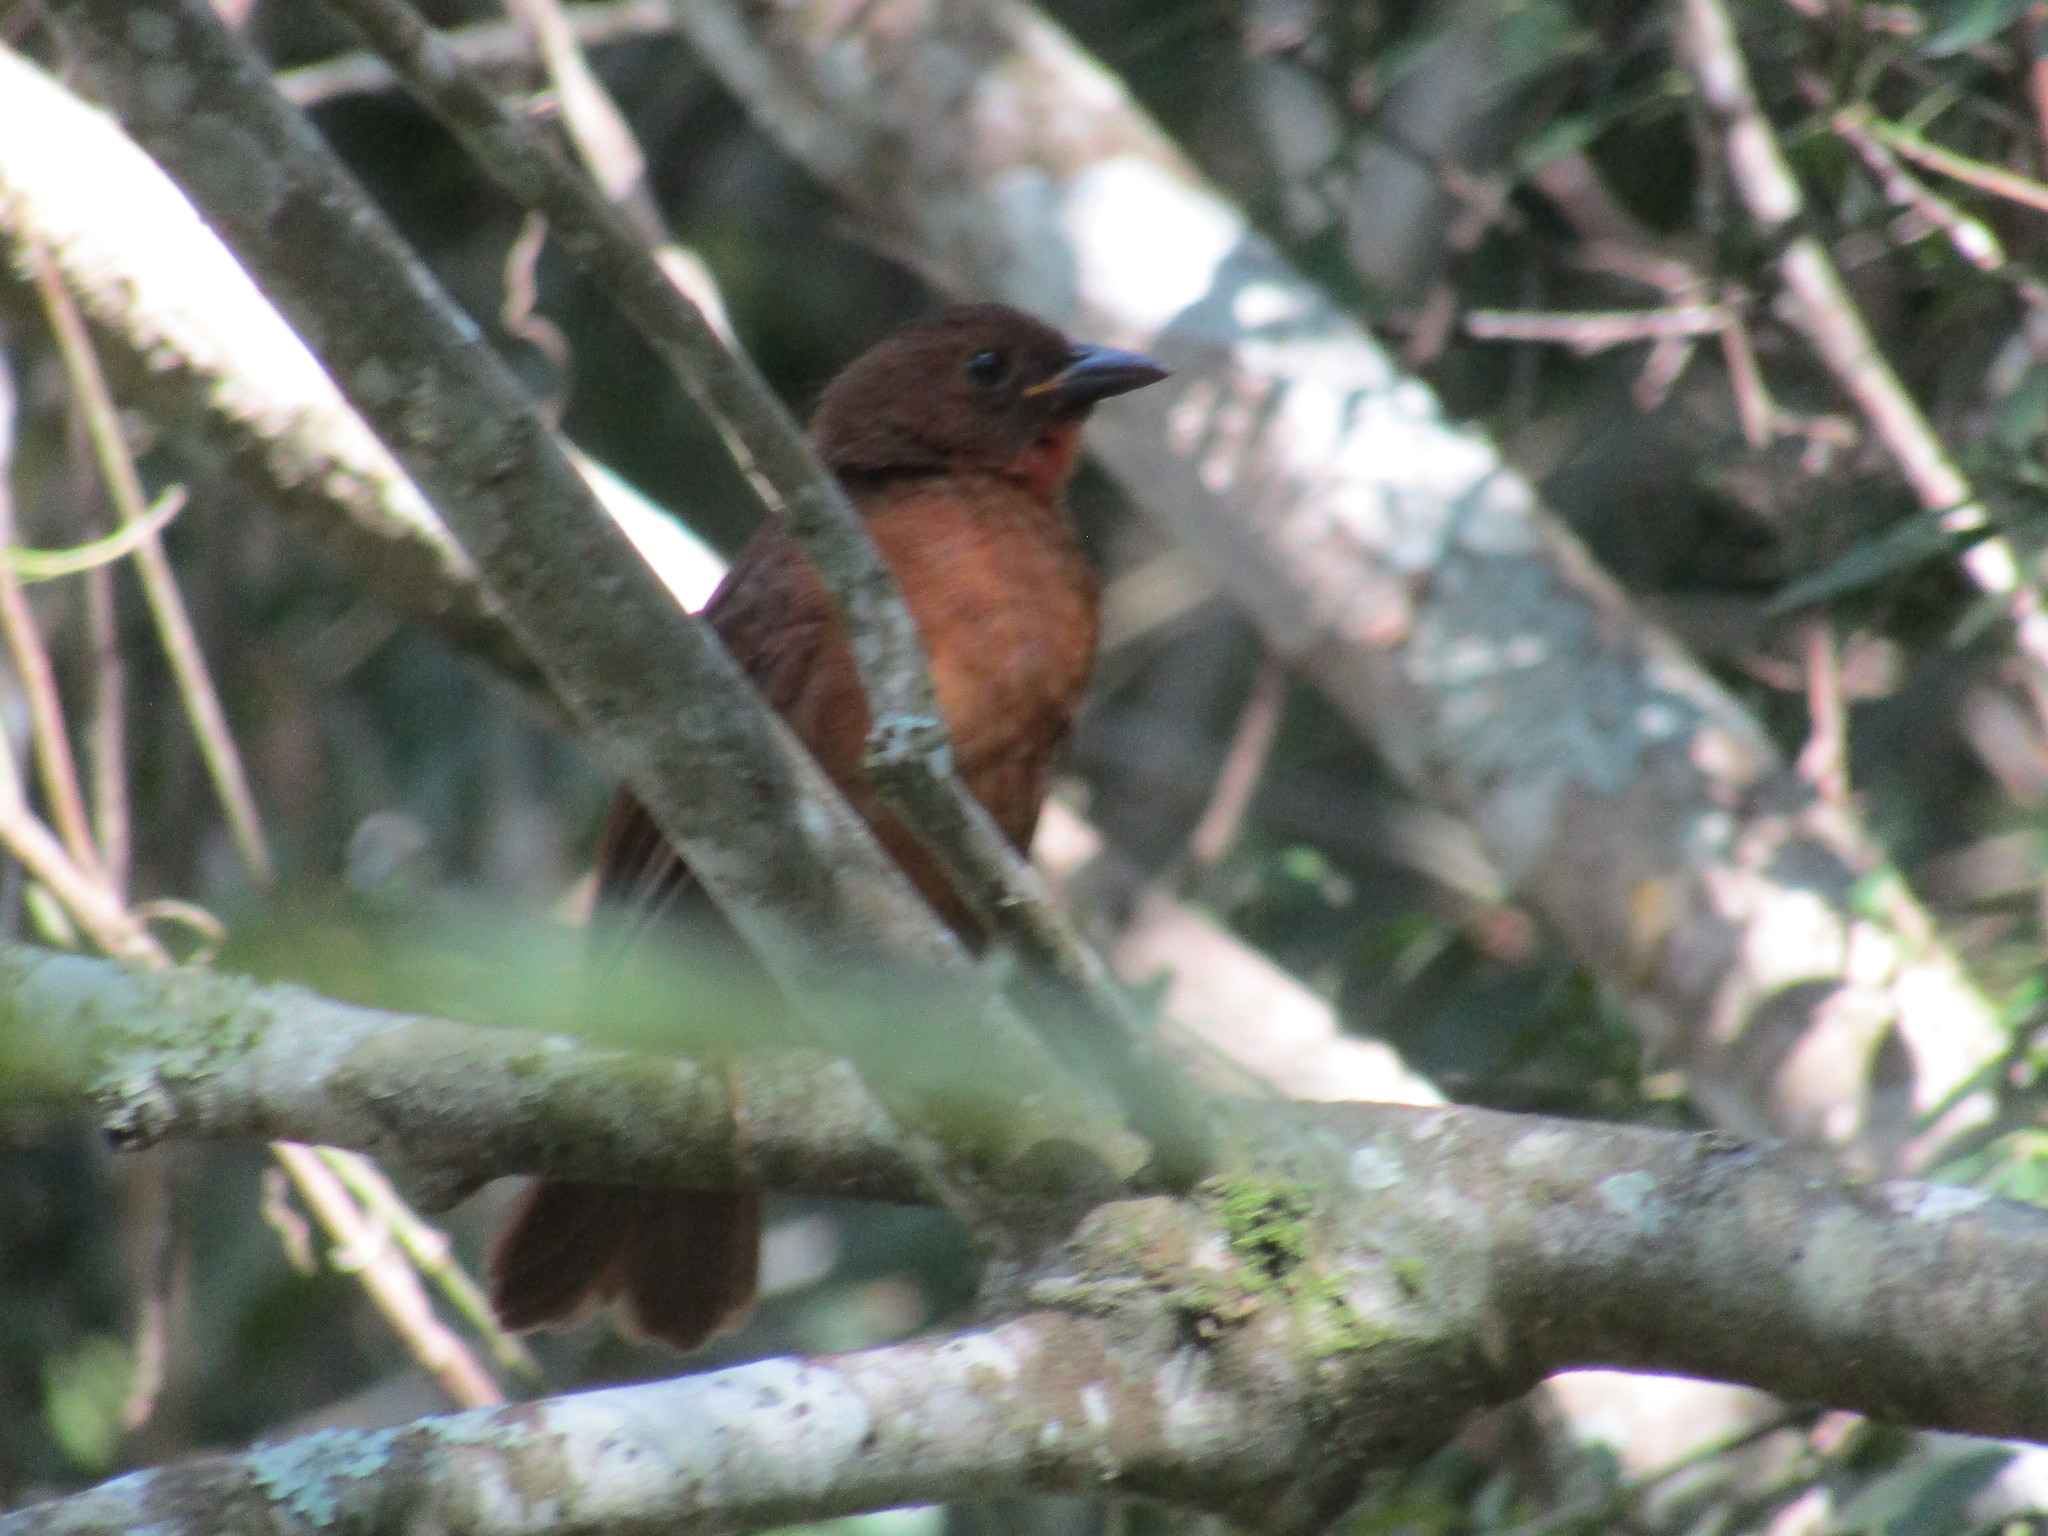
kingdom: Animalia
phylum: Chordata
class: Aves
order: Passeriformes
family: Cardinalidae
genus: Habia
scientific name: Habia fuscicauda
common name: Red-throated ant-tanager
